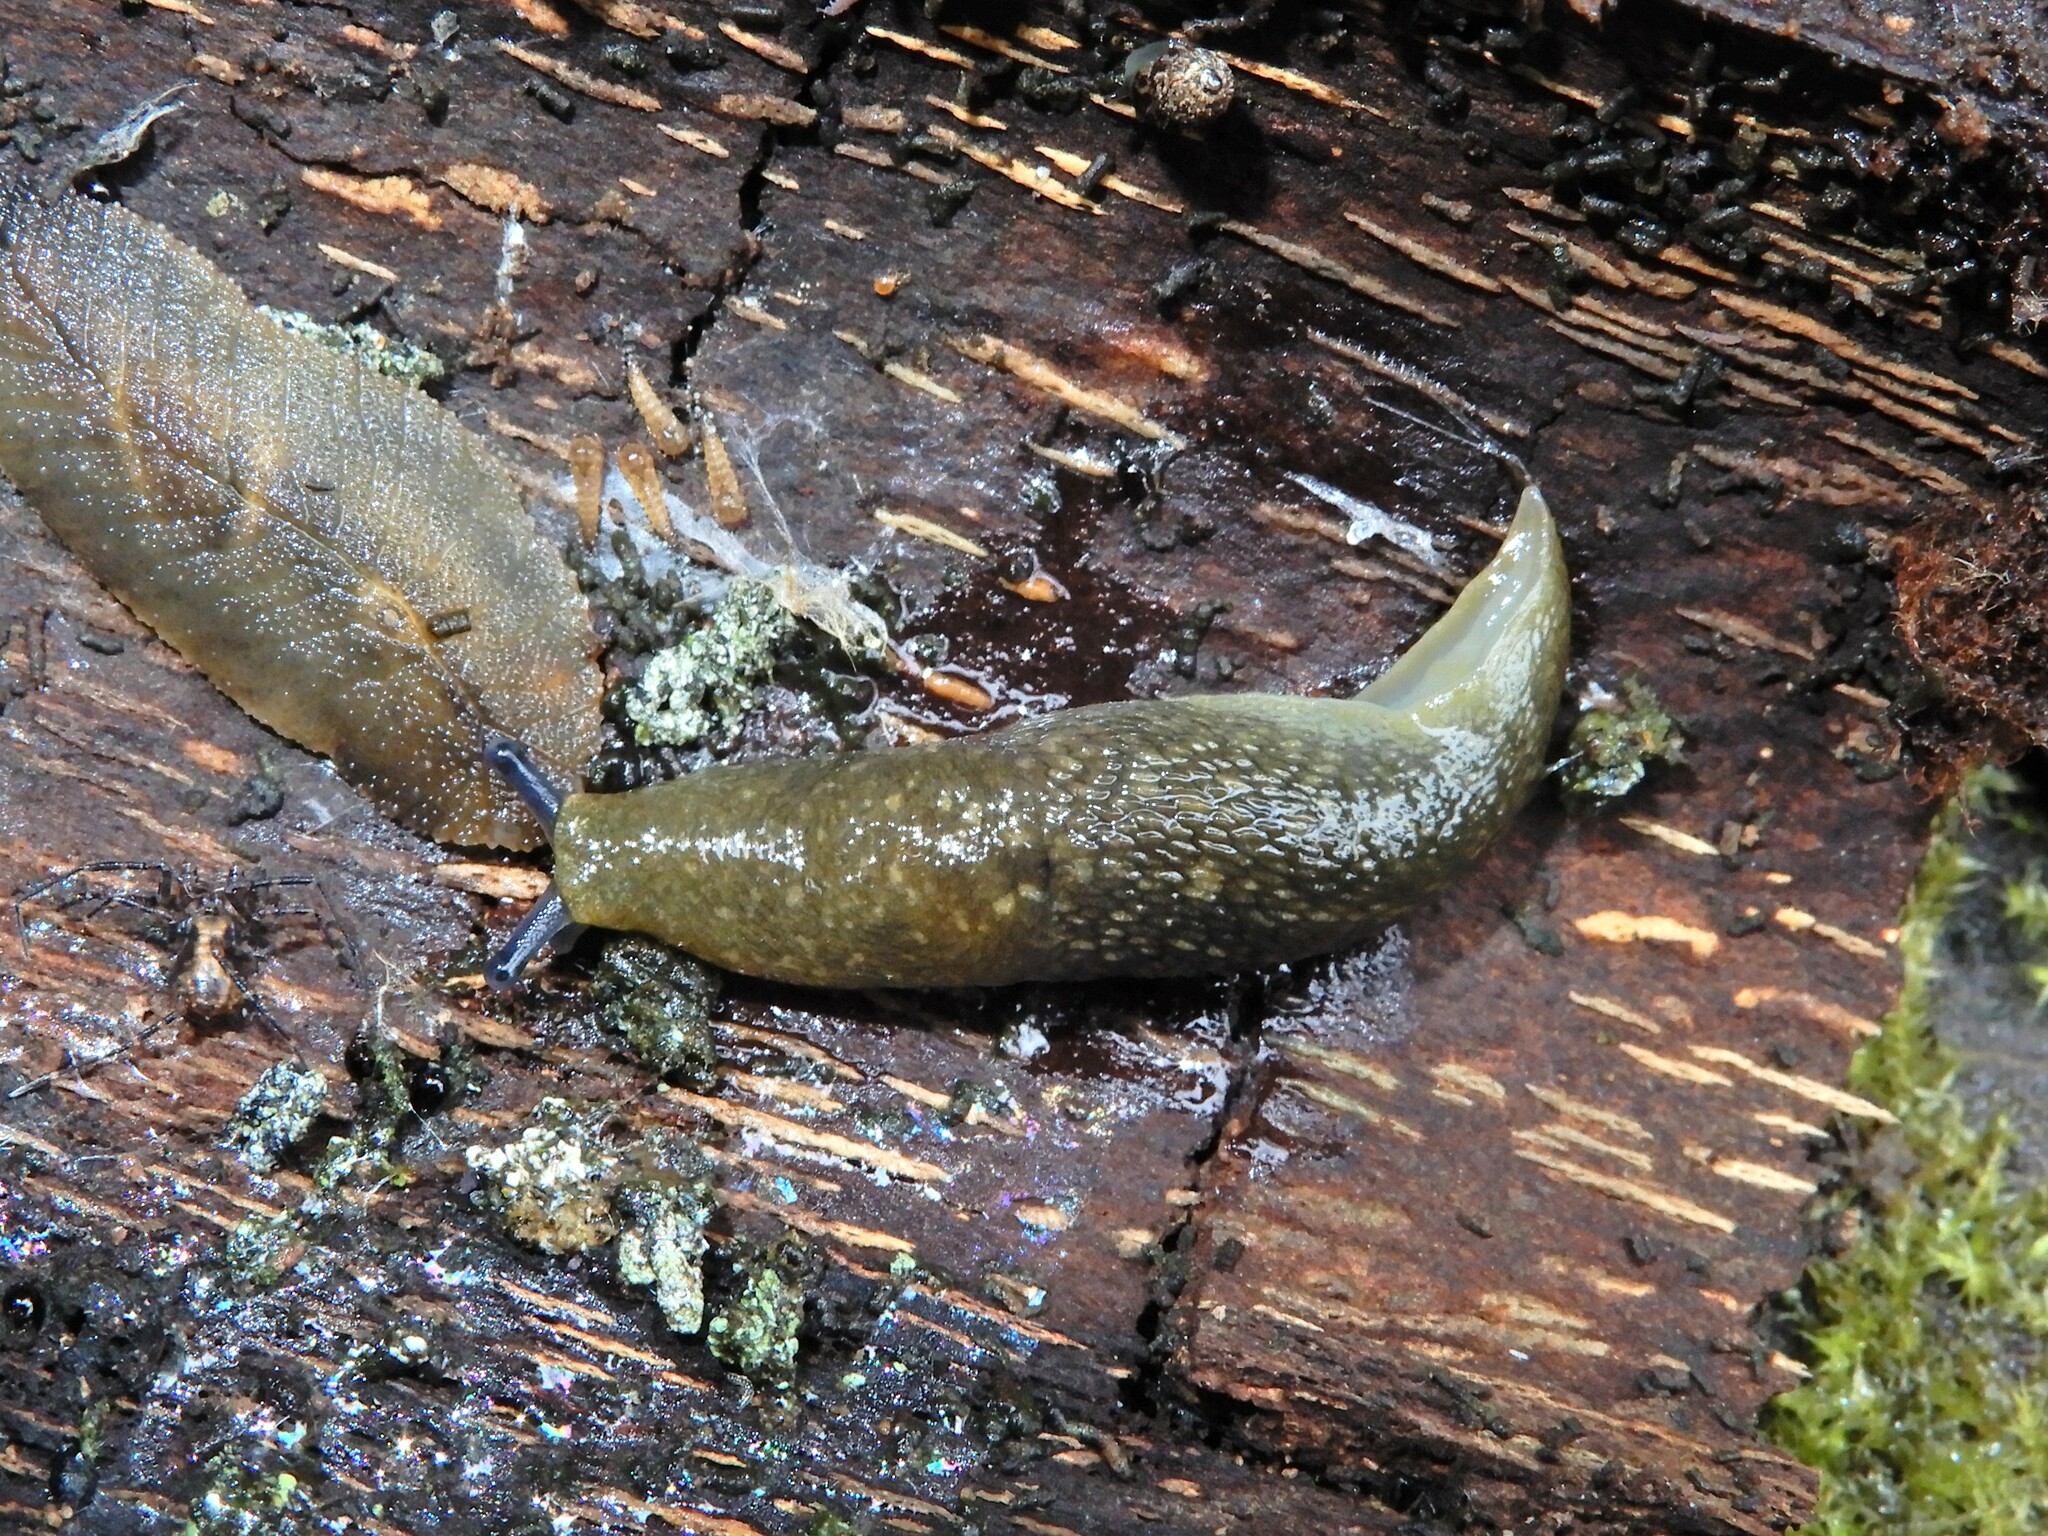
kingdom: Animalia
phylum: Mollusca
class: Gastropoda
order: Stylommatophora
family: Limacidae
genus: Limacus
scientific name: Limacus flavus
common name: Yellow gardenslug
